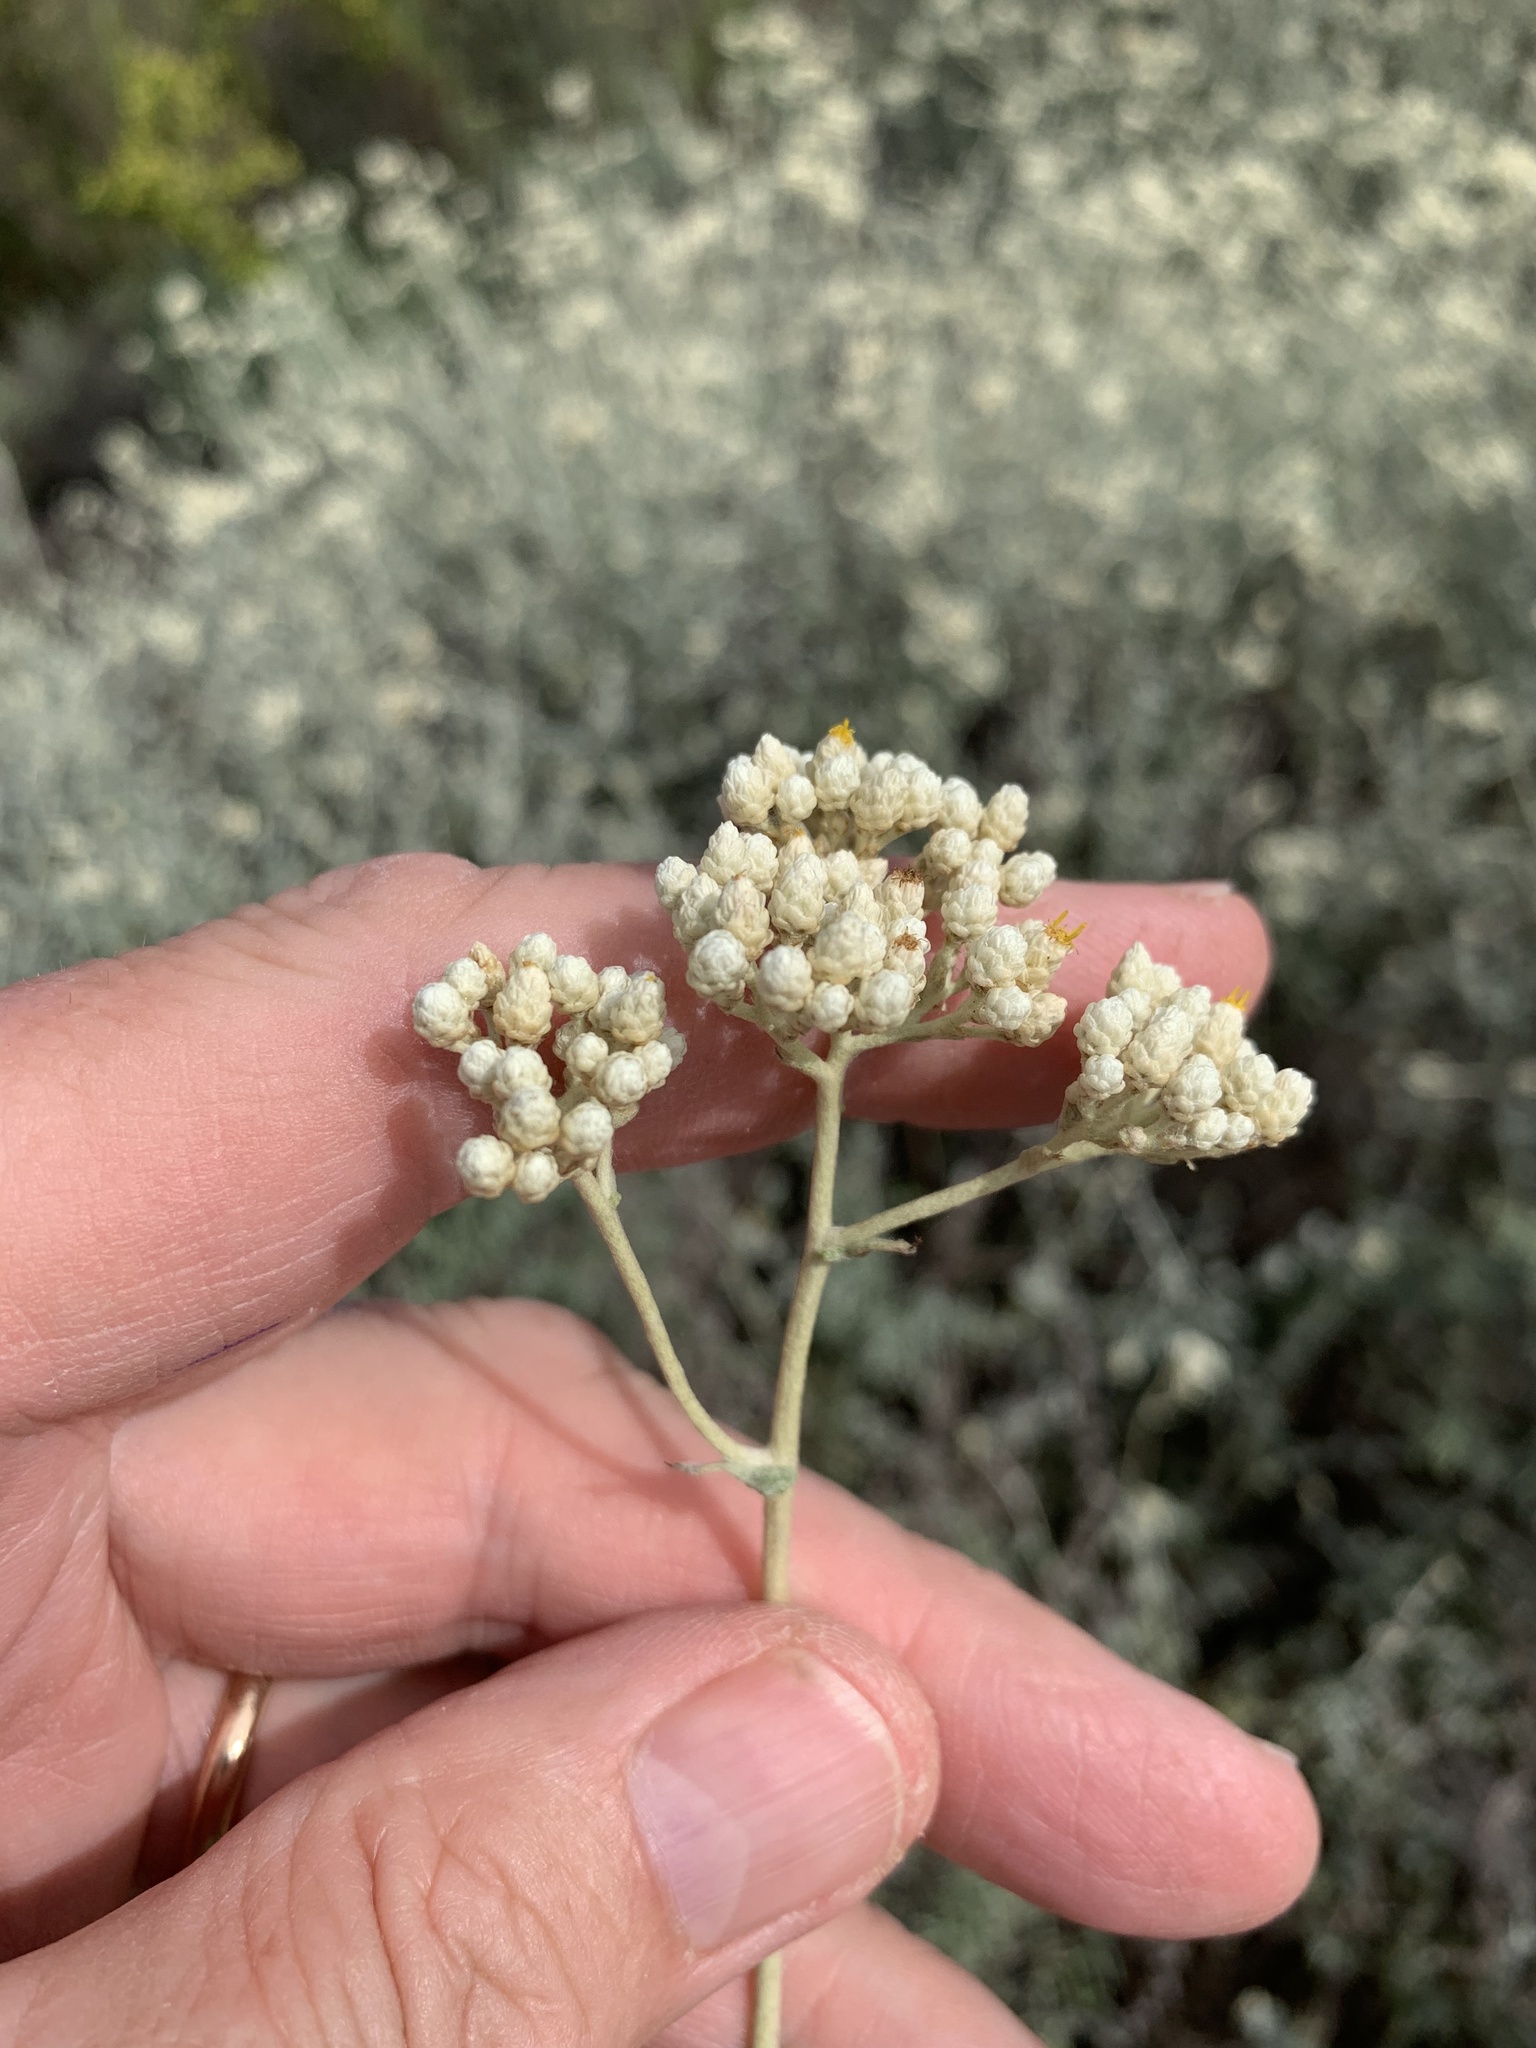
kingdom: Plantae
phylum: Tracheophyta
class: Magnoliopsida
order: Asterales
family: Asteraceae
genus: Helichrysum
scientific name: Helichrysum patulum
